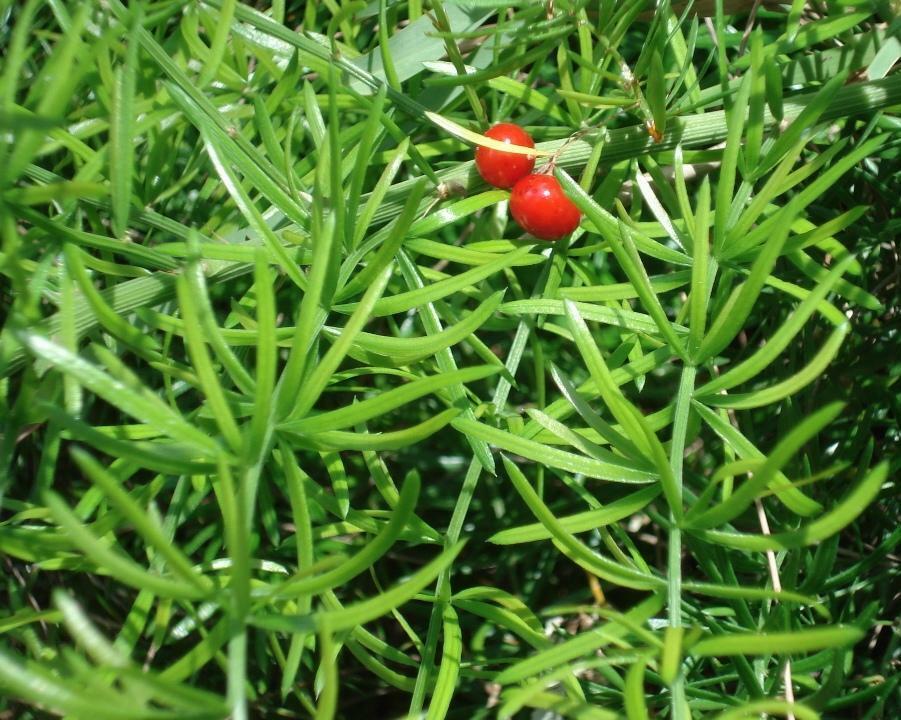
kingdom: Plantae
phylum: Tracheophyta
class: Liliopsida
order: Asparagales
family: Asparagaceae
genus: Asparagus
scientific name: Asparagus aethiopicus
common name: Sprenger's asparagus fern
